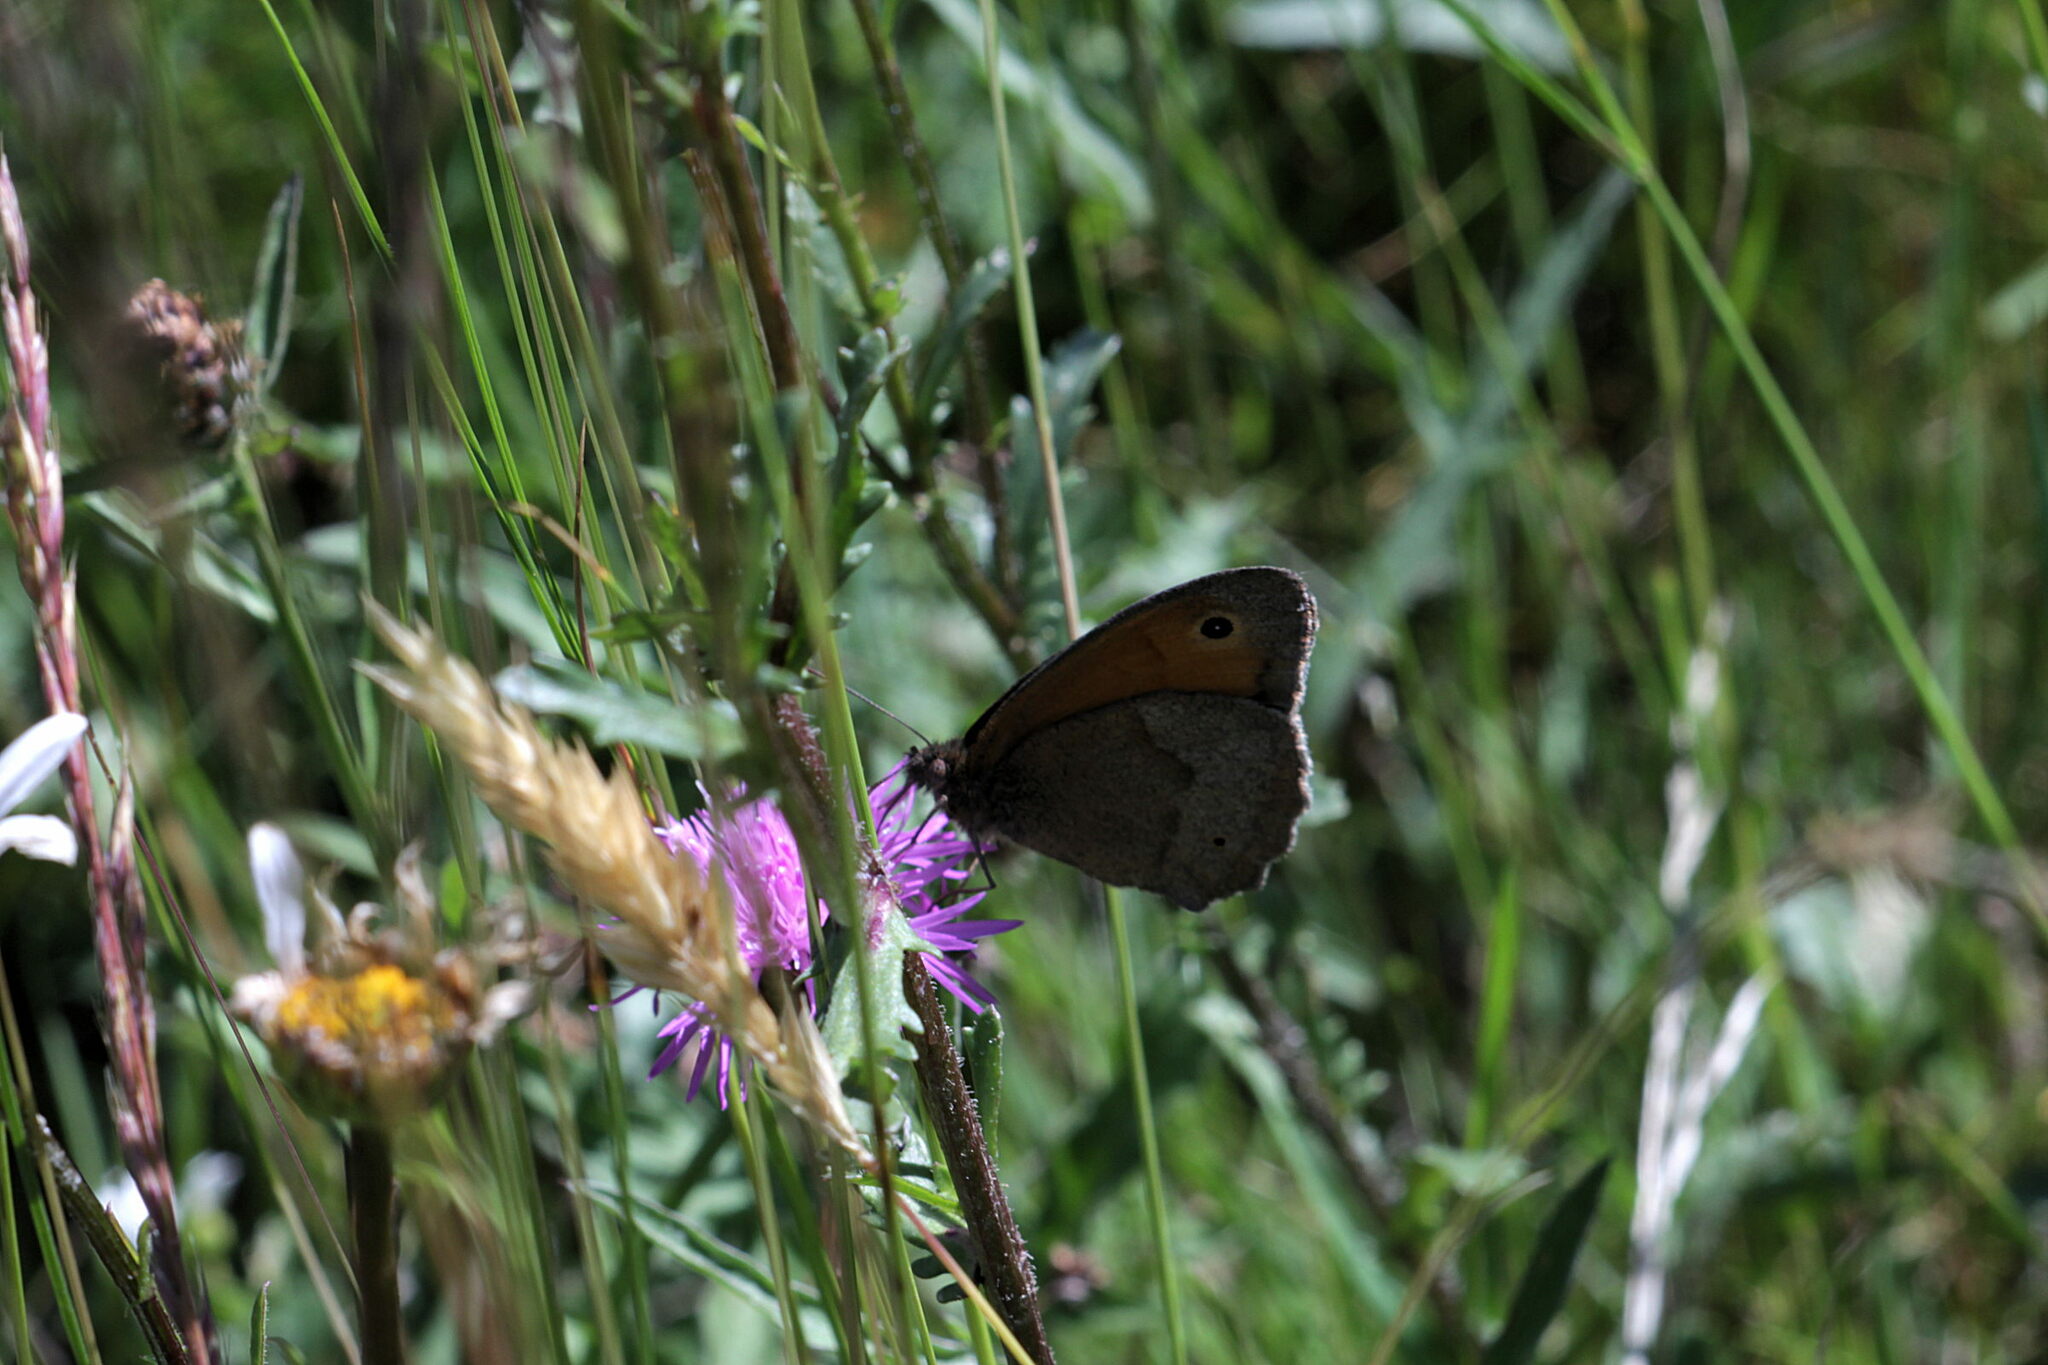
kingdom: Animalia
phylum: Arthropoda
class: Insecta
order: Lepidoptera
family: Nymphalidae
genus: Maniola
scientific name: Maniola jurtina
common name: Meadow brown
